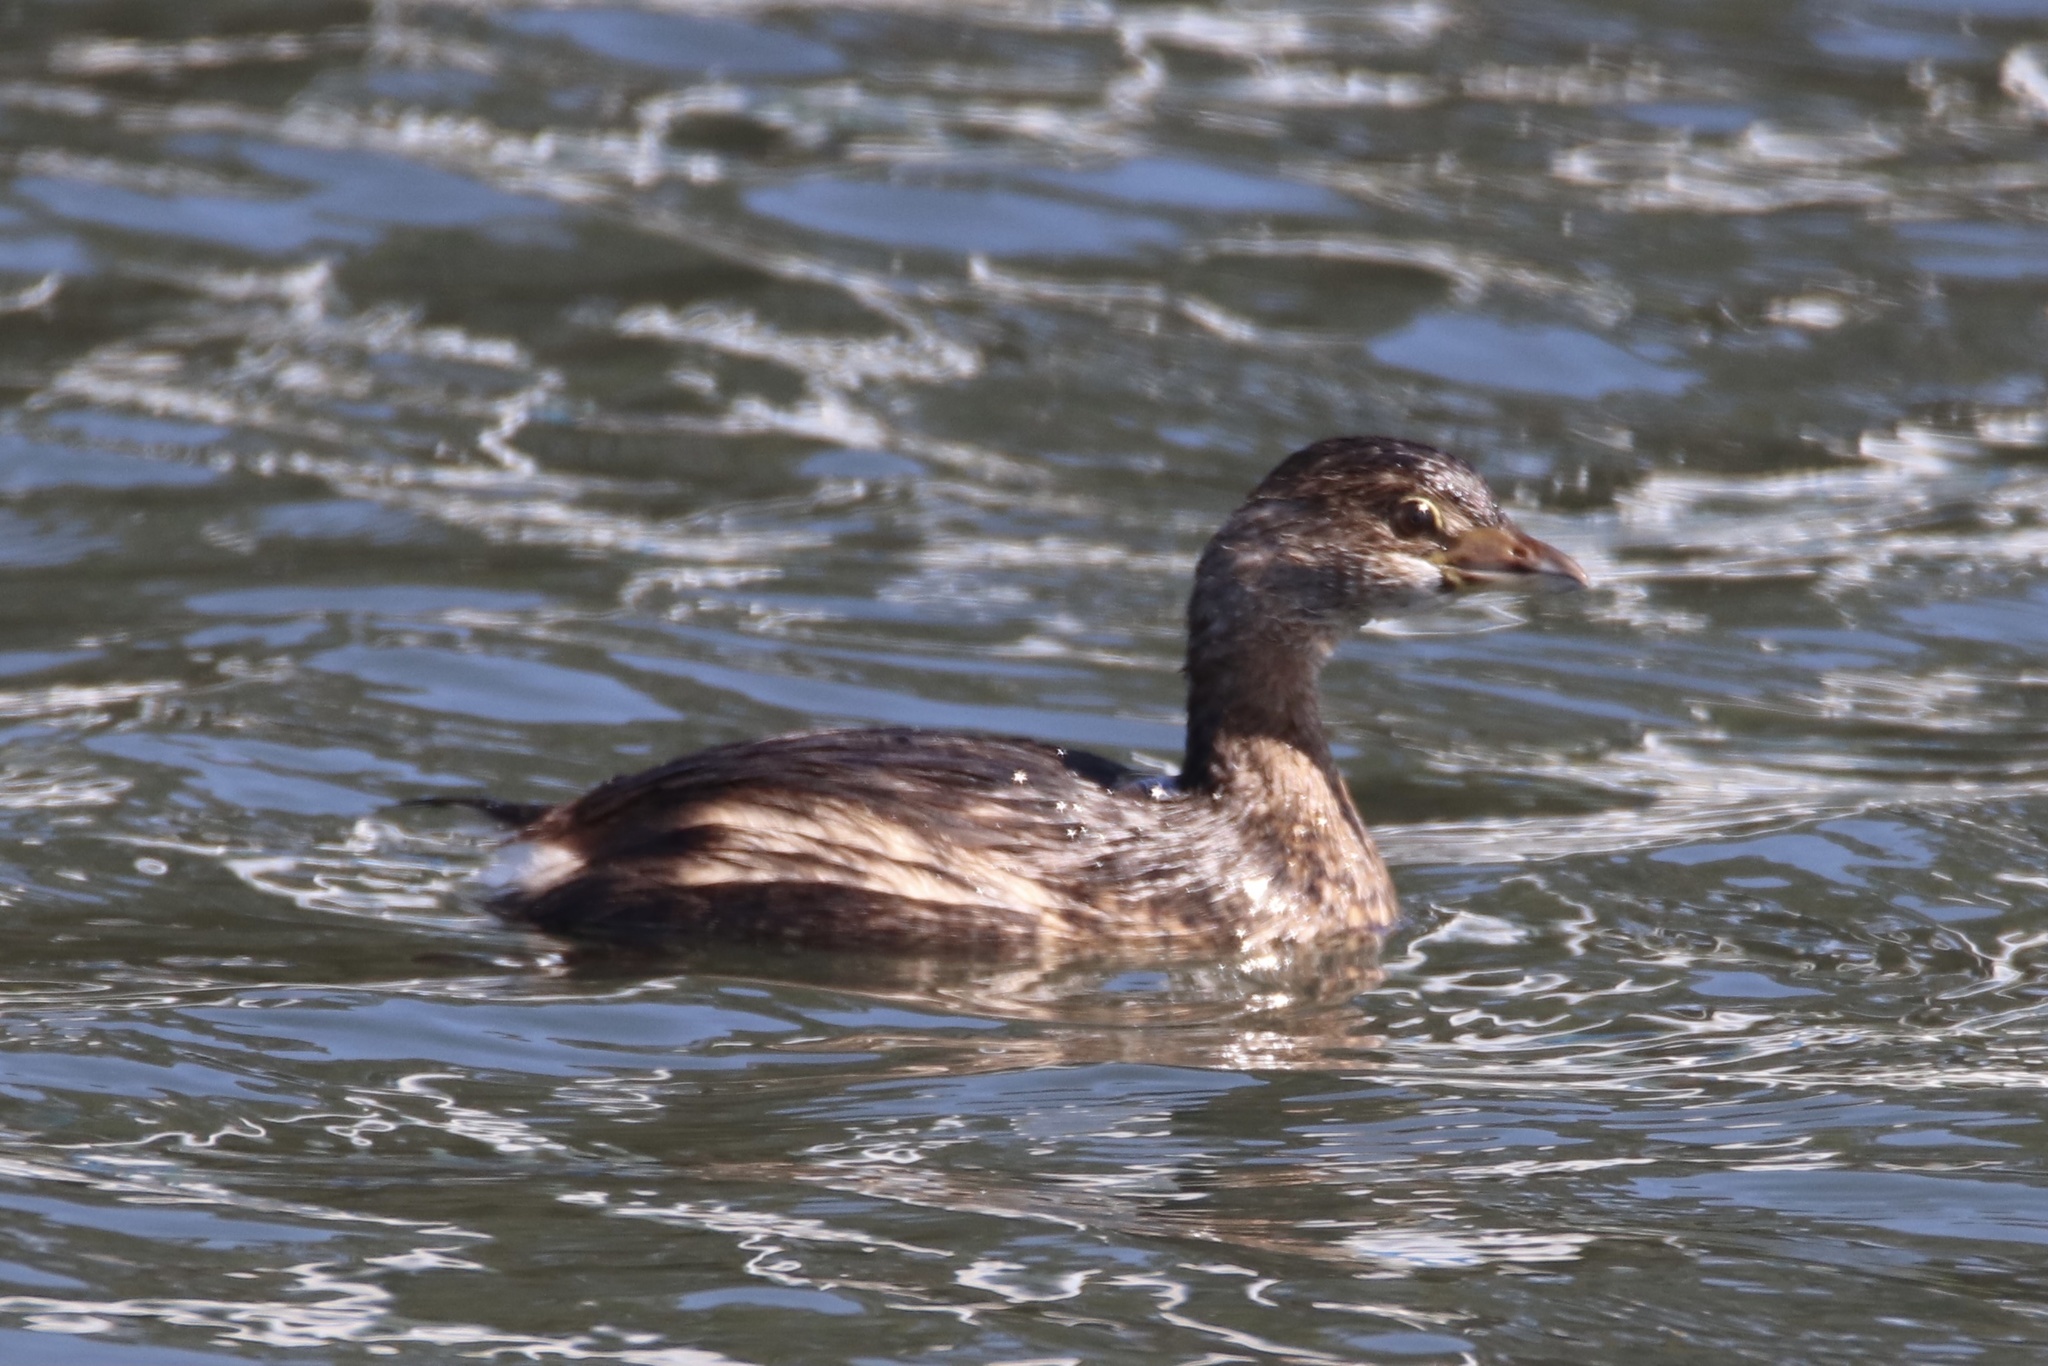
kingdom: Animalia
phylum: Chordata
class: Aves
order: Podicipediformes
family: Podicipedidae
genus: Podilymbus
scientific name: Podilymbus podiceps
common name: Pied-billed grebe
